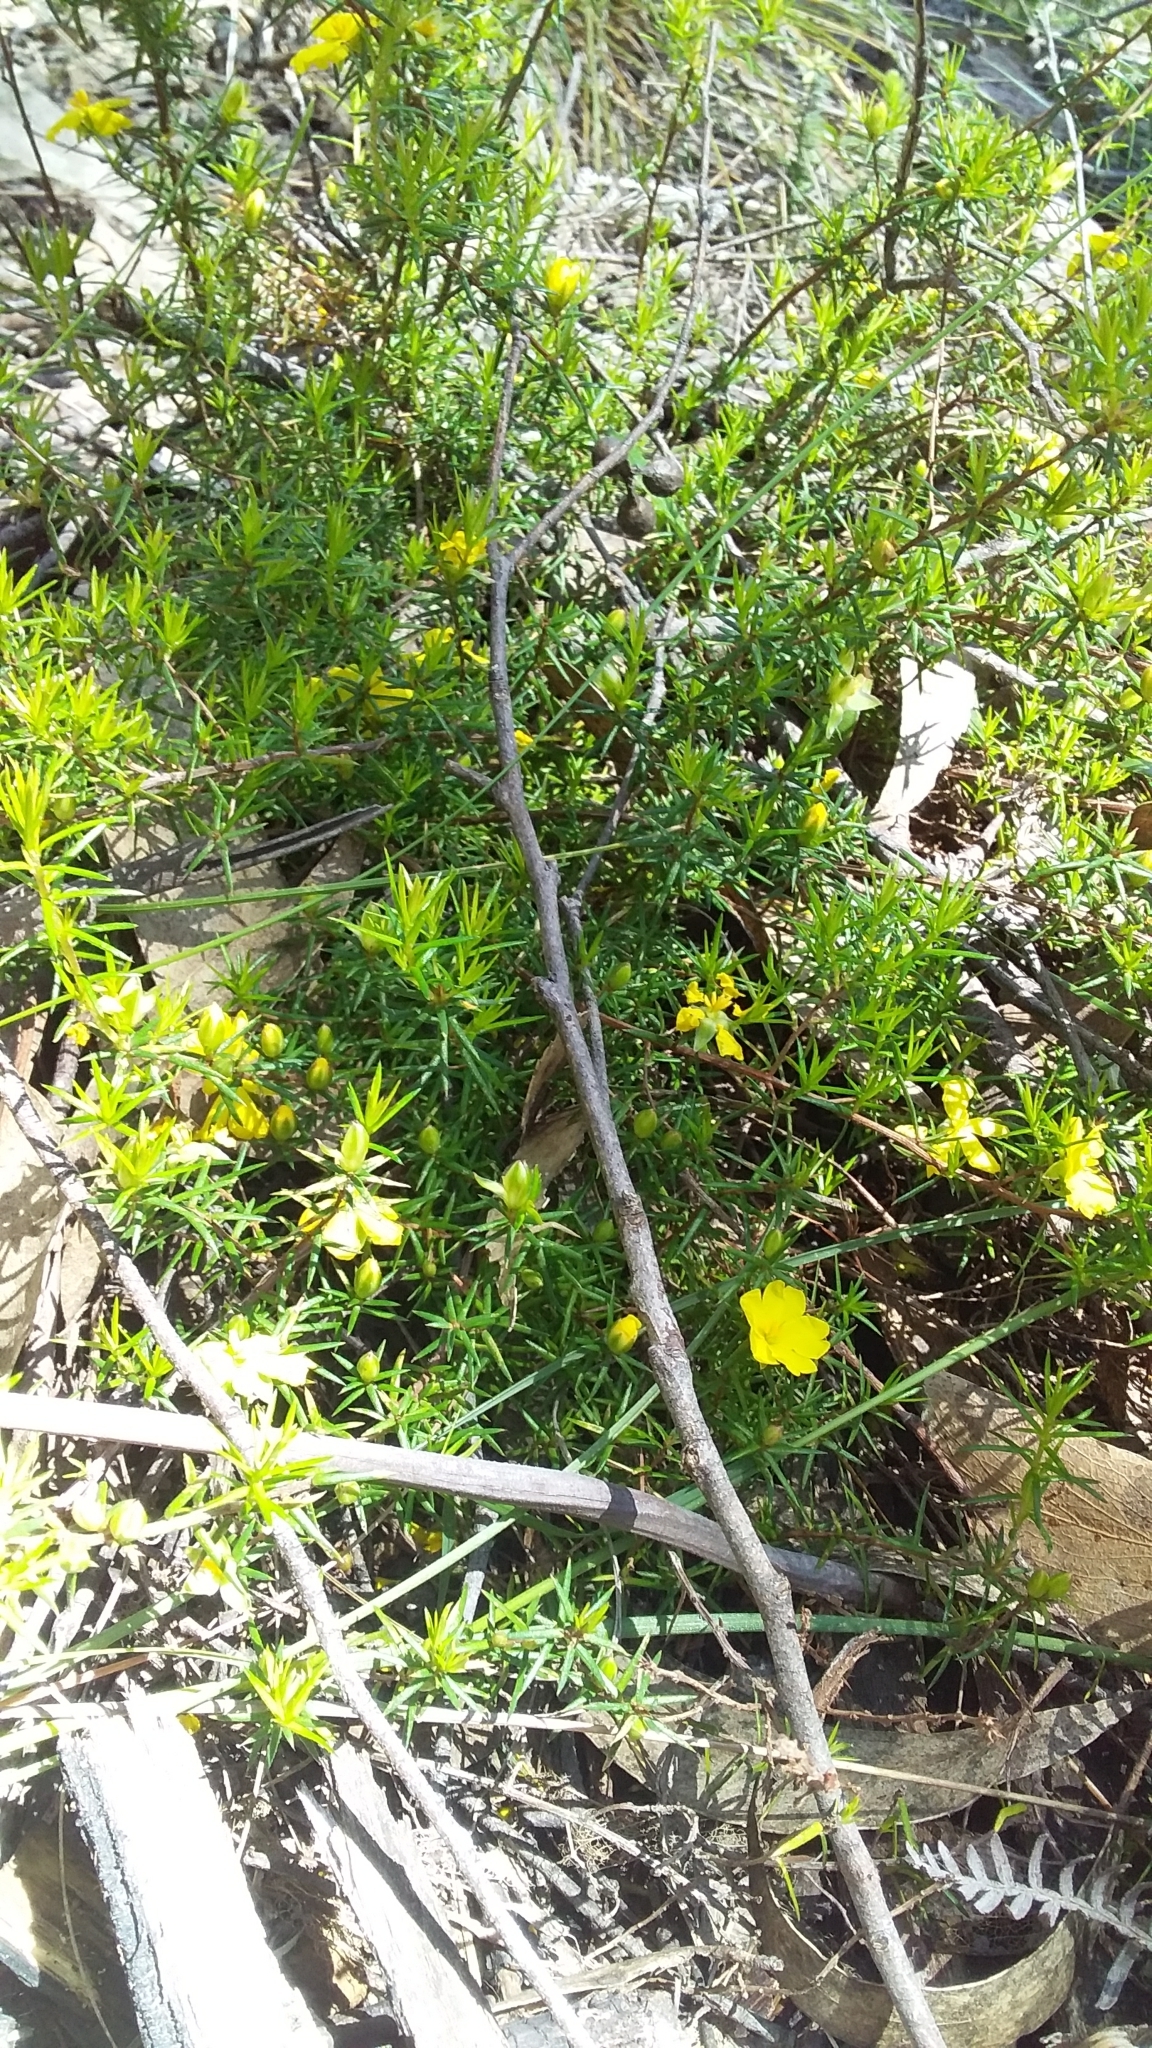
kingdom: Plantae
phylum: Tracheophyta
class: Magnoliopsida
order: Dilleniales
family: Dilleniaceae
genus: Hibbertia
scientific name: Hibbertia exutiacies
